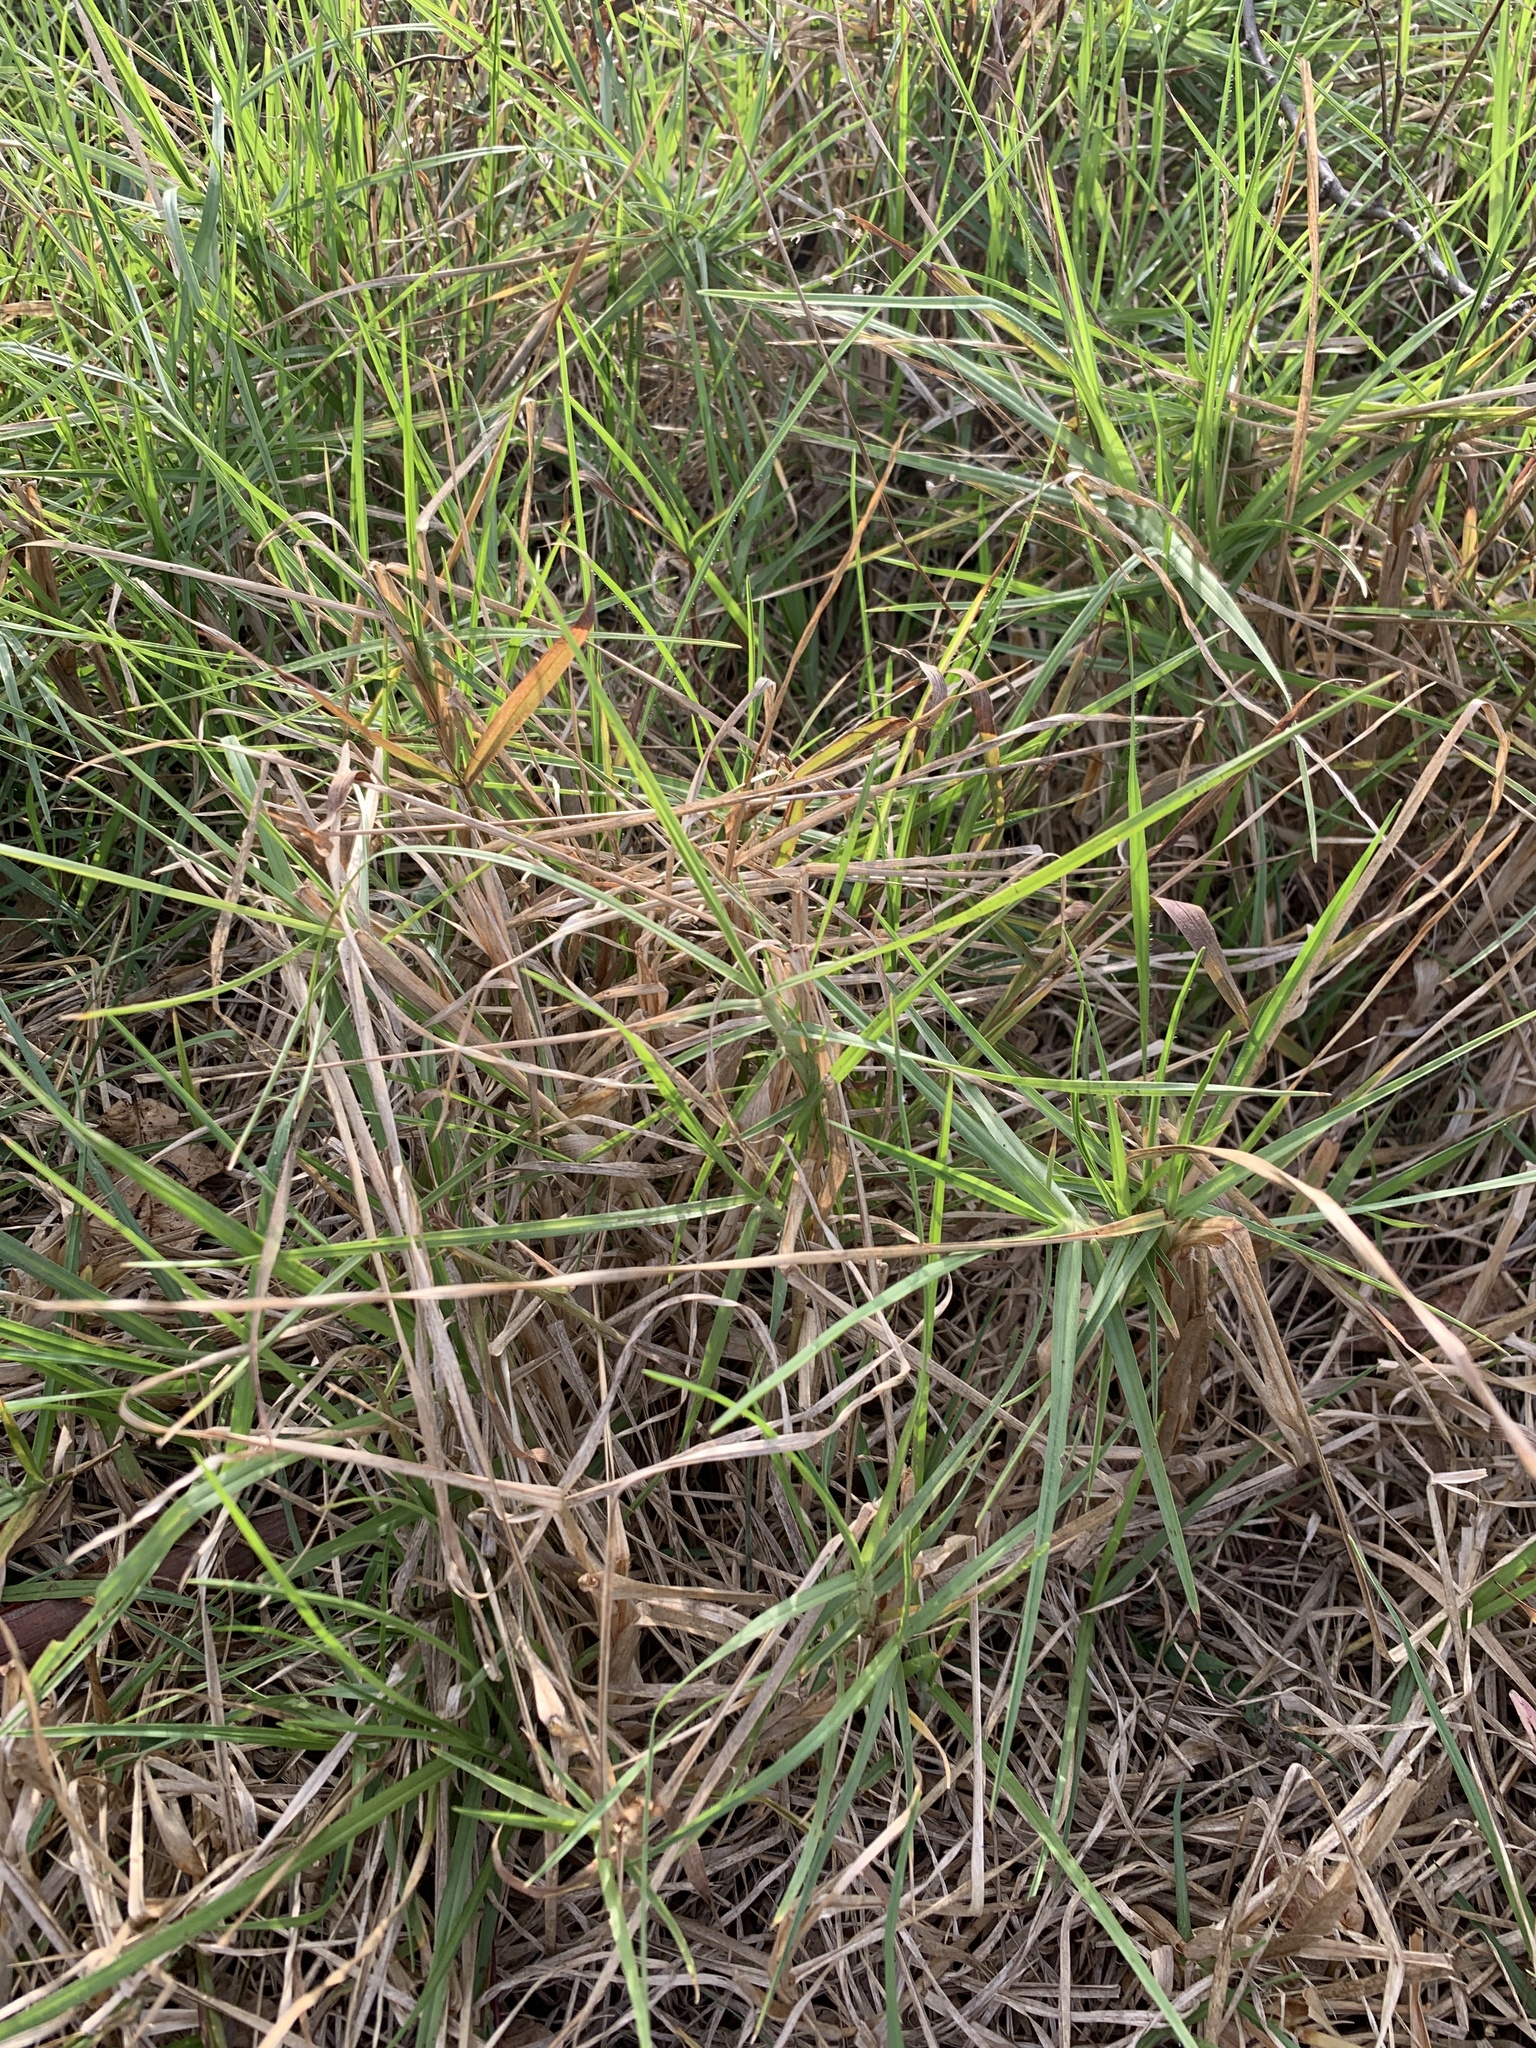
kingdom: Plantae
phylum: Tracheophyta
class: Liliopsida
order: Poales
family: Poaceae
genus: Cenchrus
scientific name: Cenchrus clandestinus
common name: Kikuyugrass
